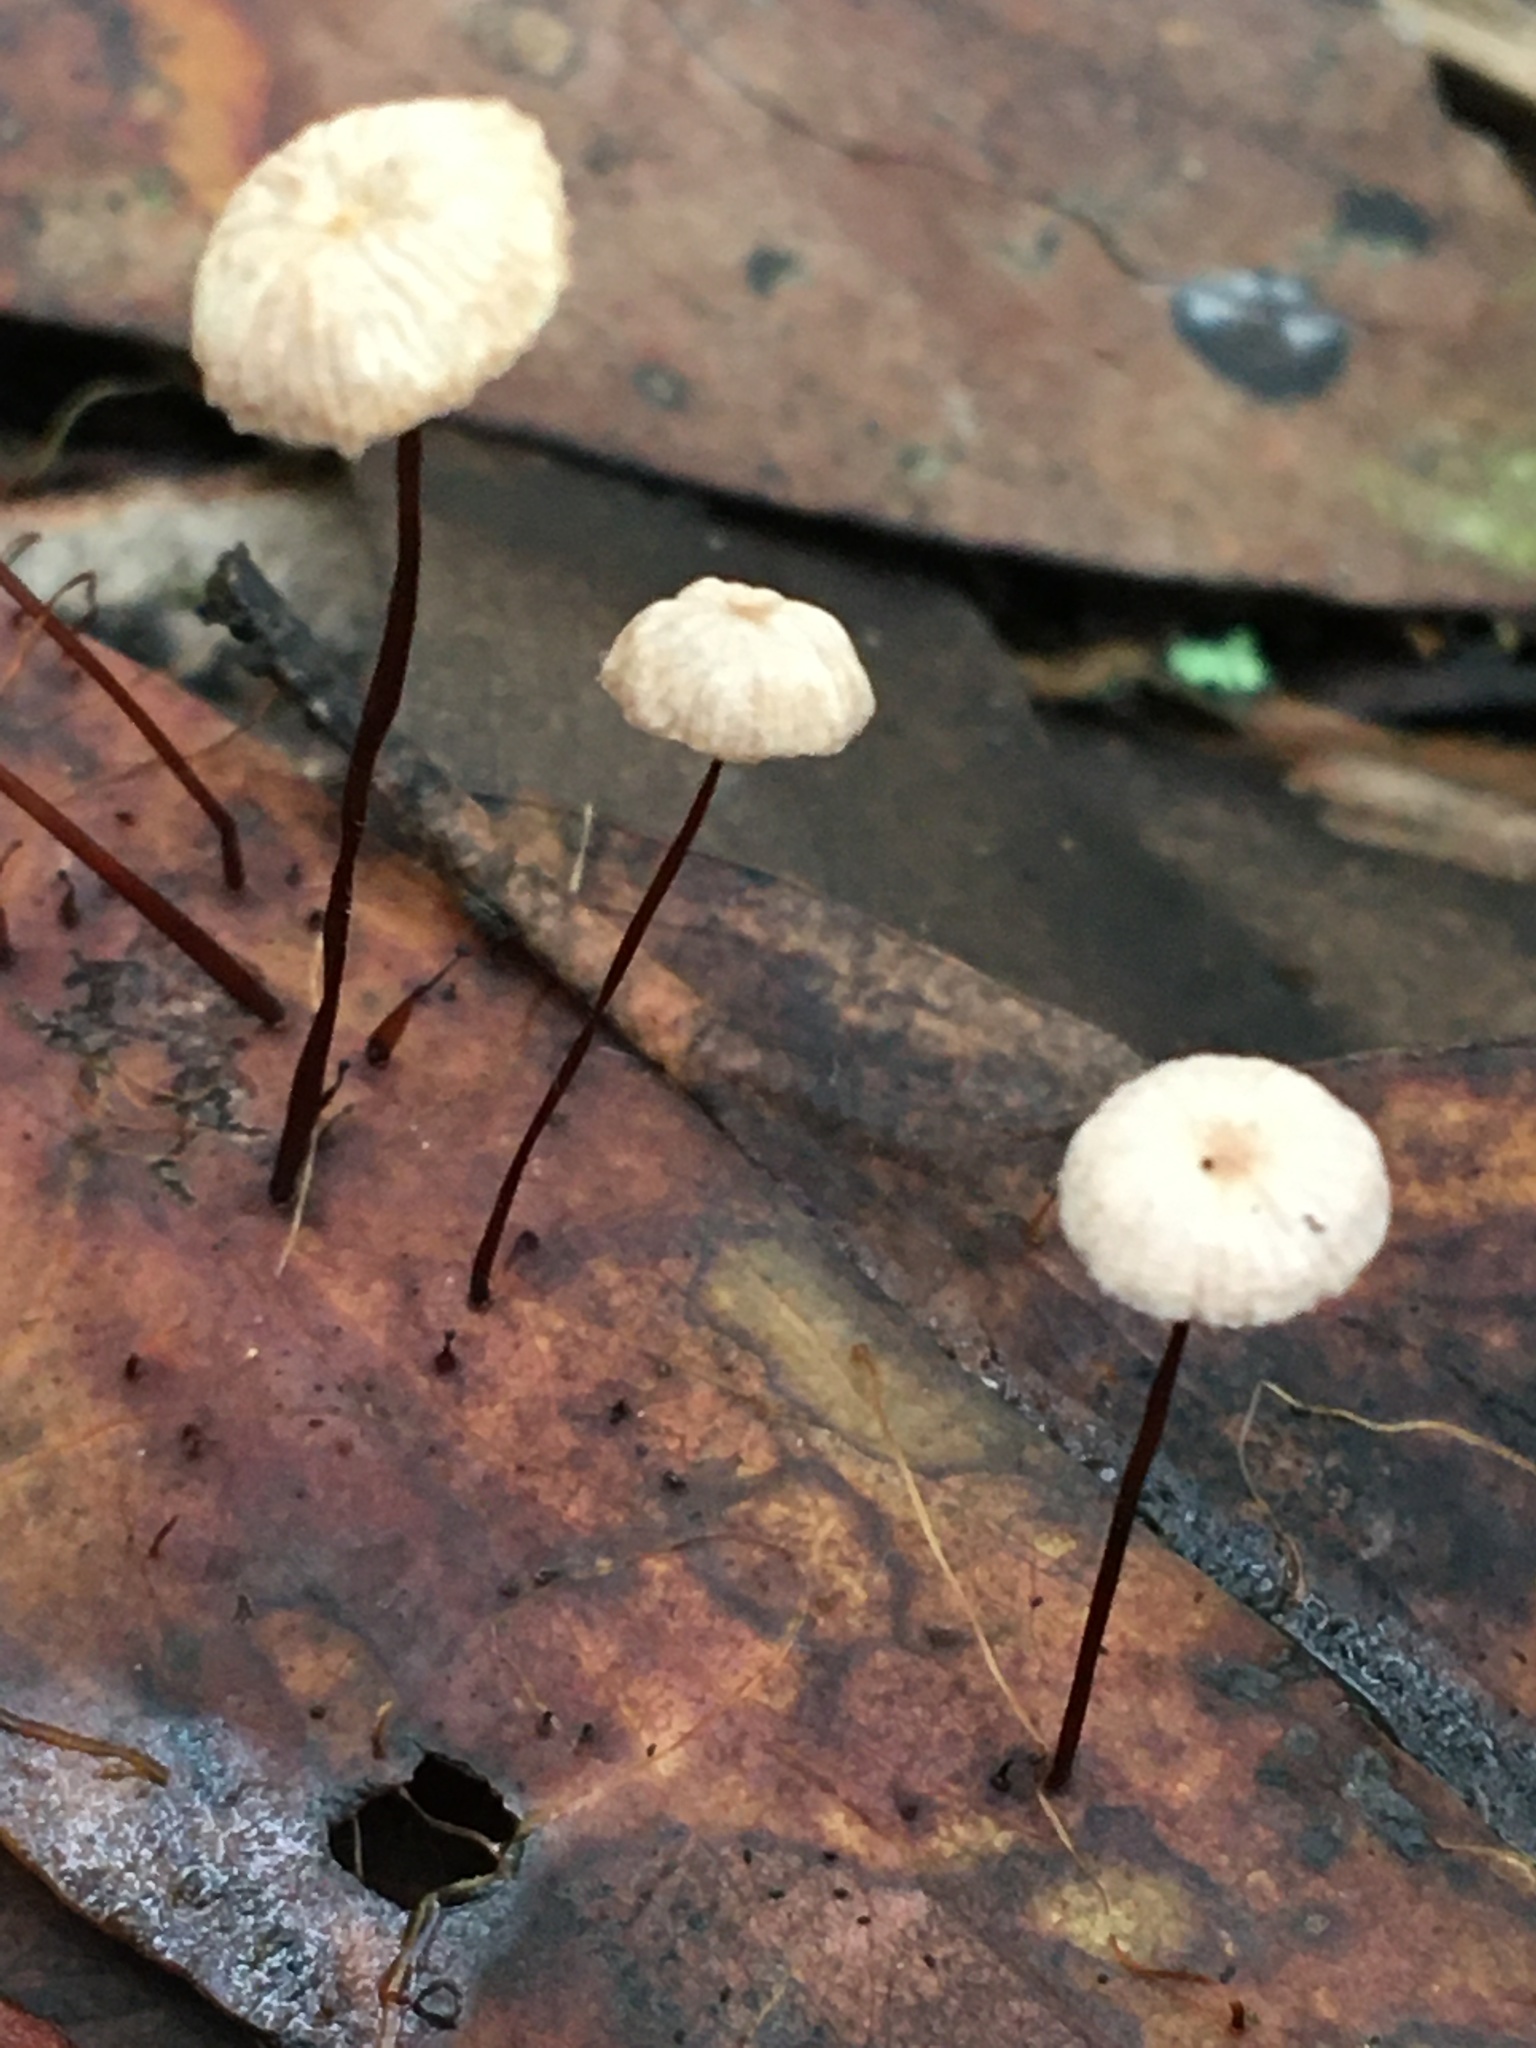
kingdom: Fungi
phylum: Basidiomycota
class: Agaricomycetes
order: Agaricales
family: Marasmiaceae
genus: Marasmius
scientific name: Marasmius alveolaris
